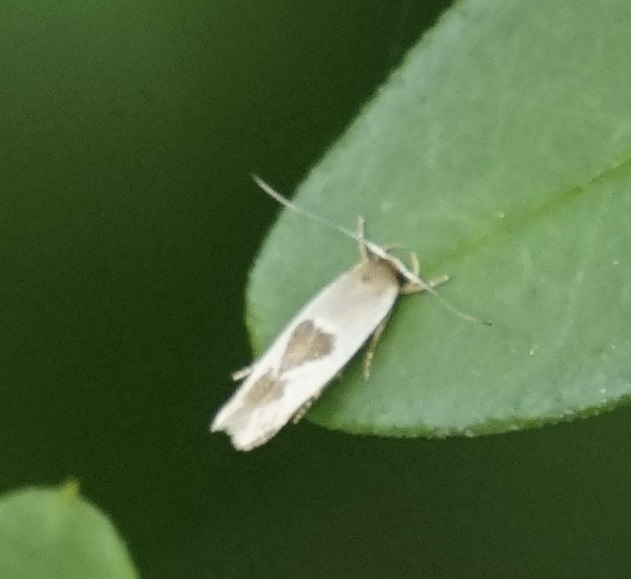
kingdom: Animalia
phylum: Arthropoda
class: Insecta
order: Lepidoptera
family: Stathmopodidae
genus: Stathmopoda
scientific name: Stathmopoda megathyma
